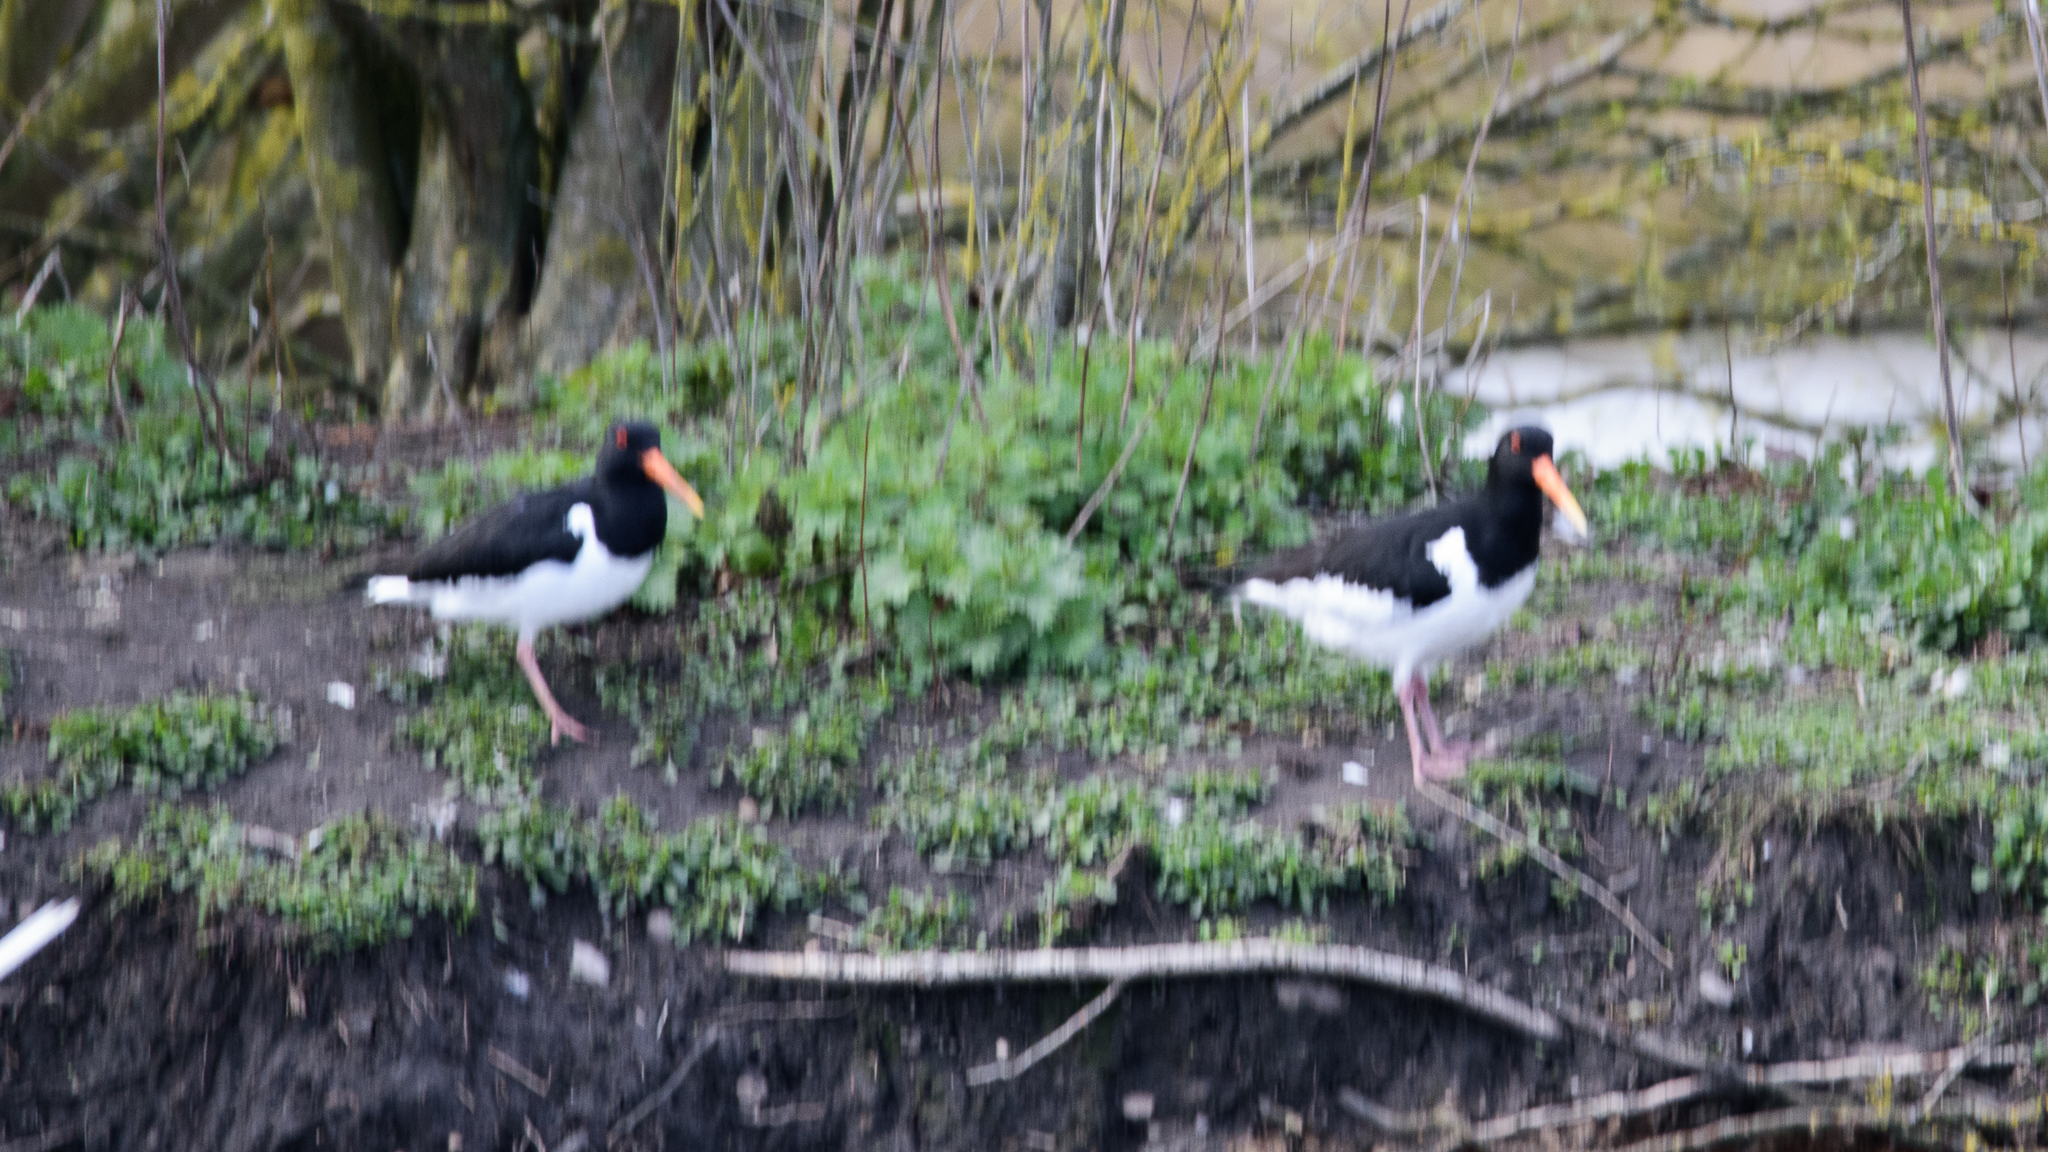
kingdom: Animalia
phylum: Chordata
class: Aves
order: Charadriiformes
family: Haematopodidae
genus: Haematopus
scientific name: Haematopus ostralegus
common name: Eurasian oystercatcher
